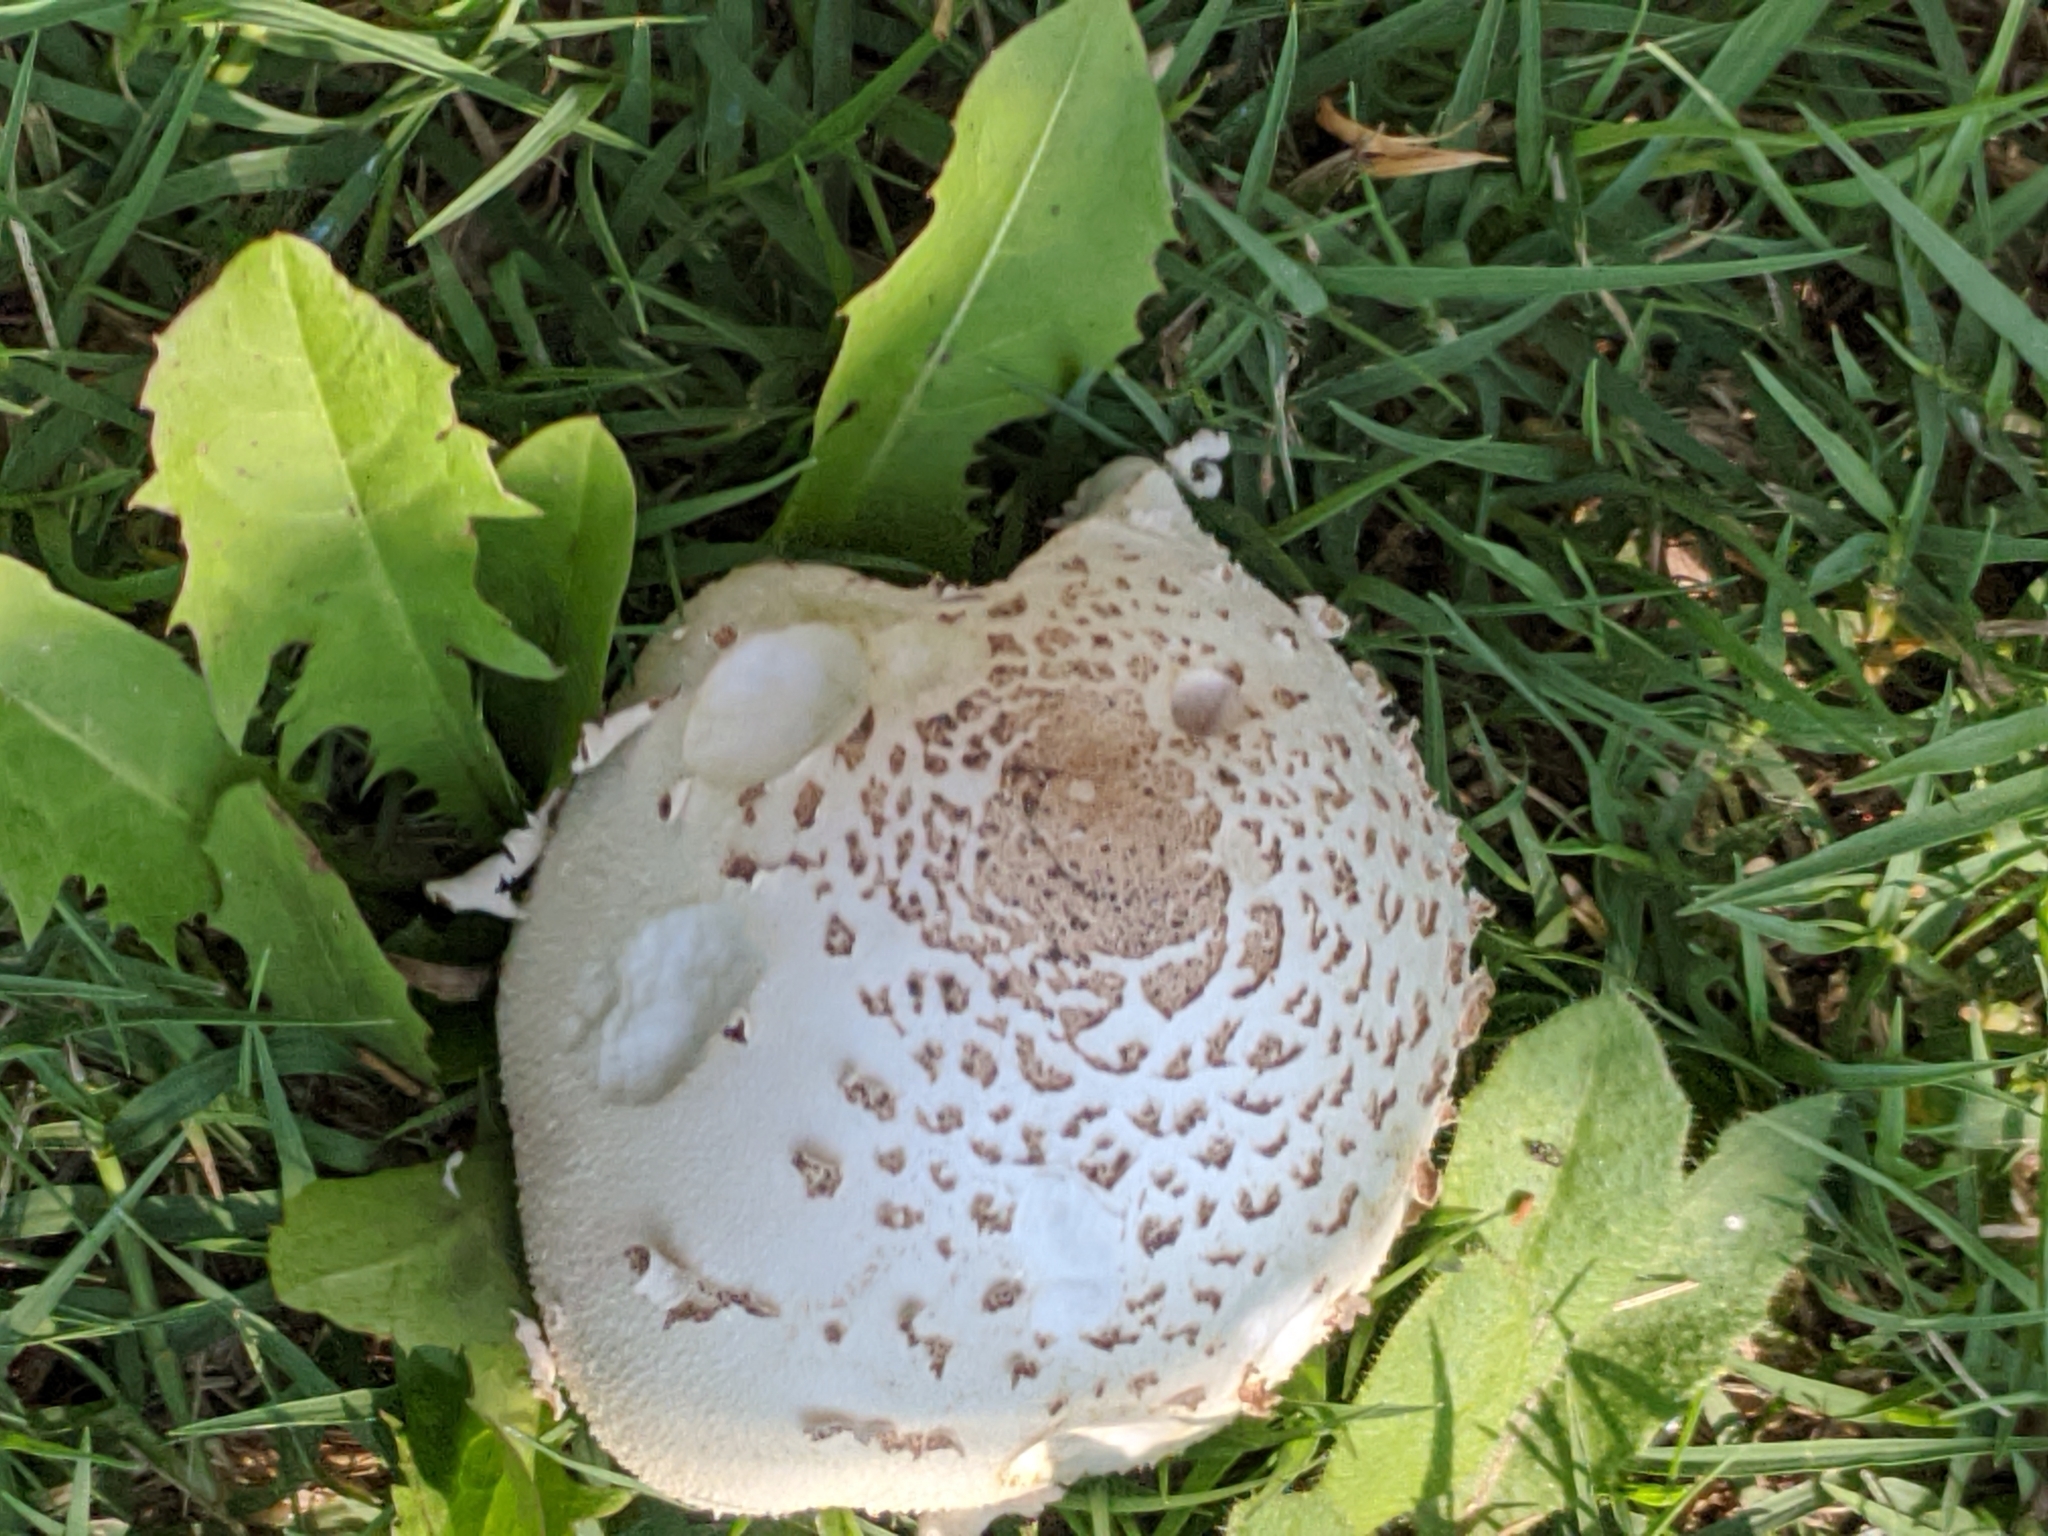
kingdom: Fungi
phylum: Basidiomycota
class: Agaricomycetes
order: Agaricales
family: Agaricaceae
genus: Chlorophyllum
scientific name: Chlorophyllum molybdites
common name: False parasol
